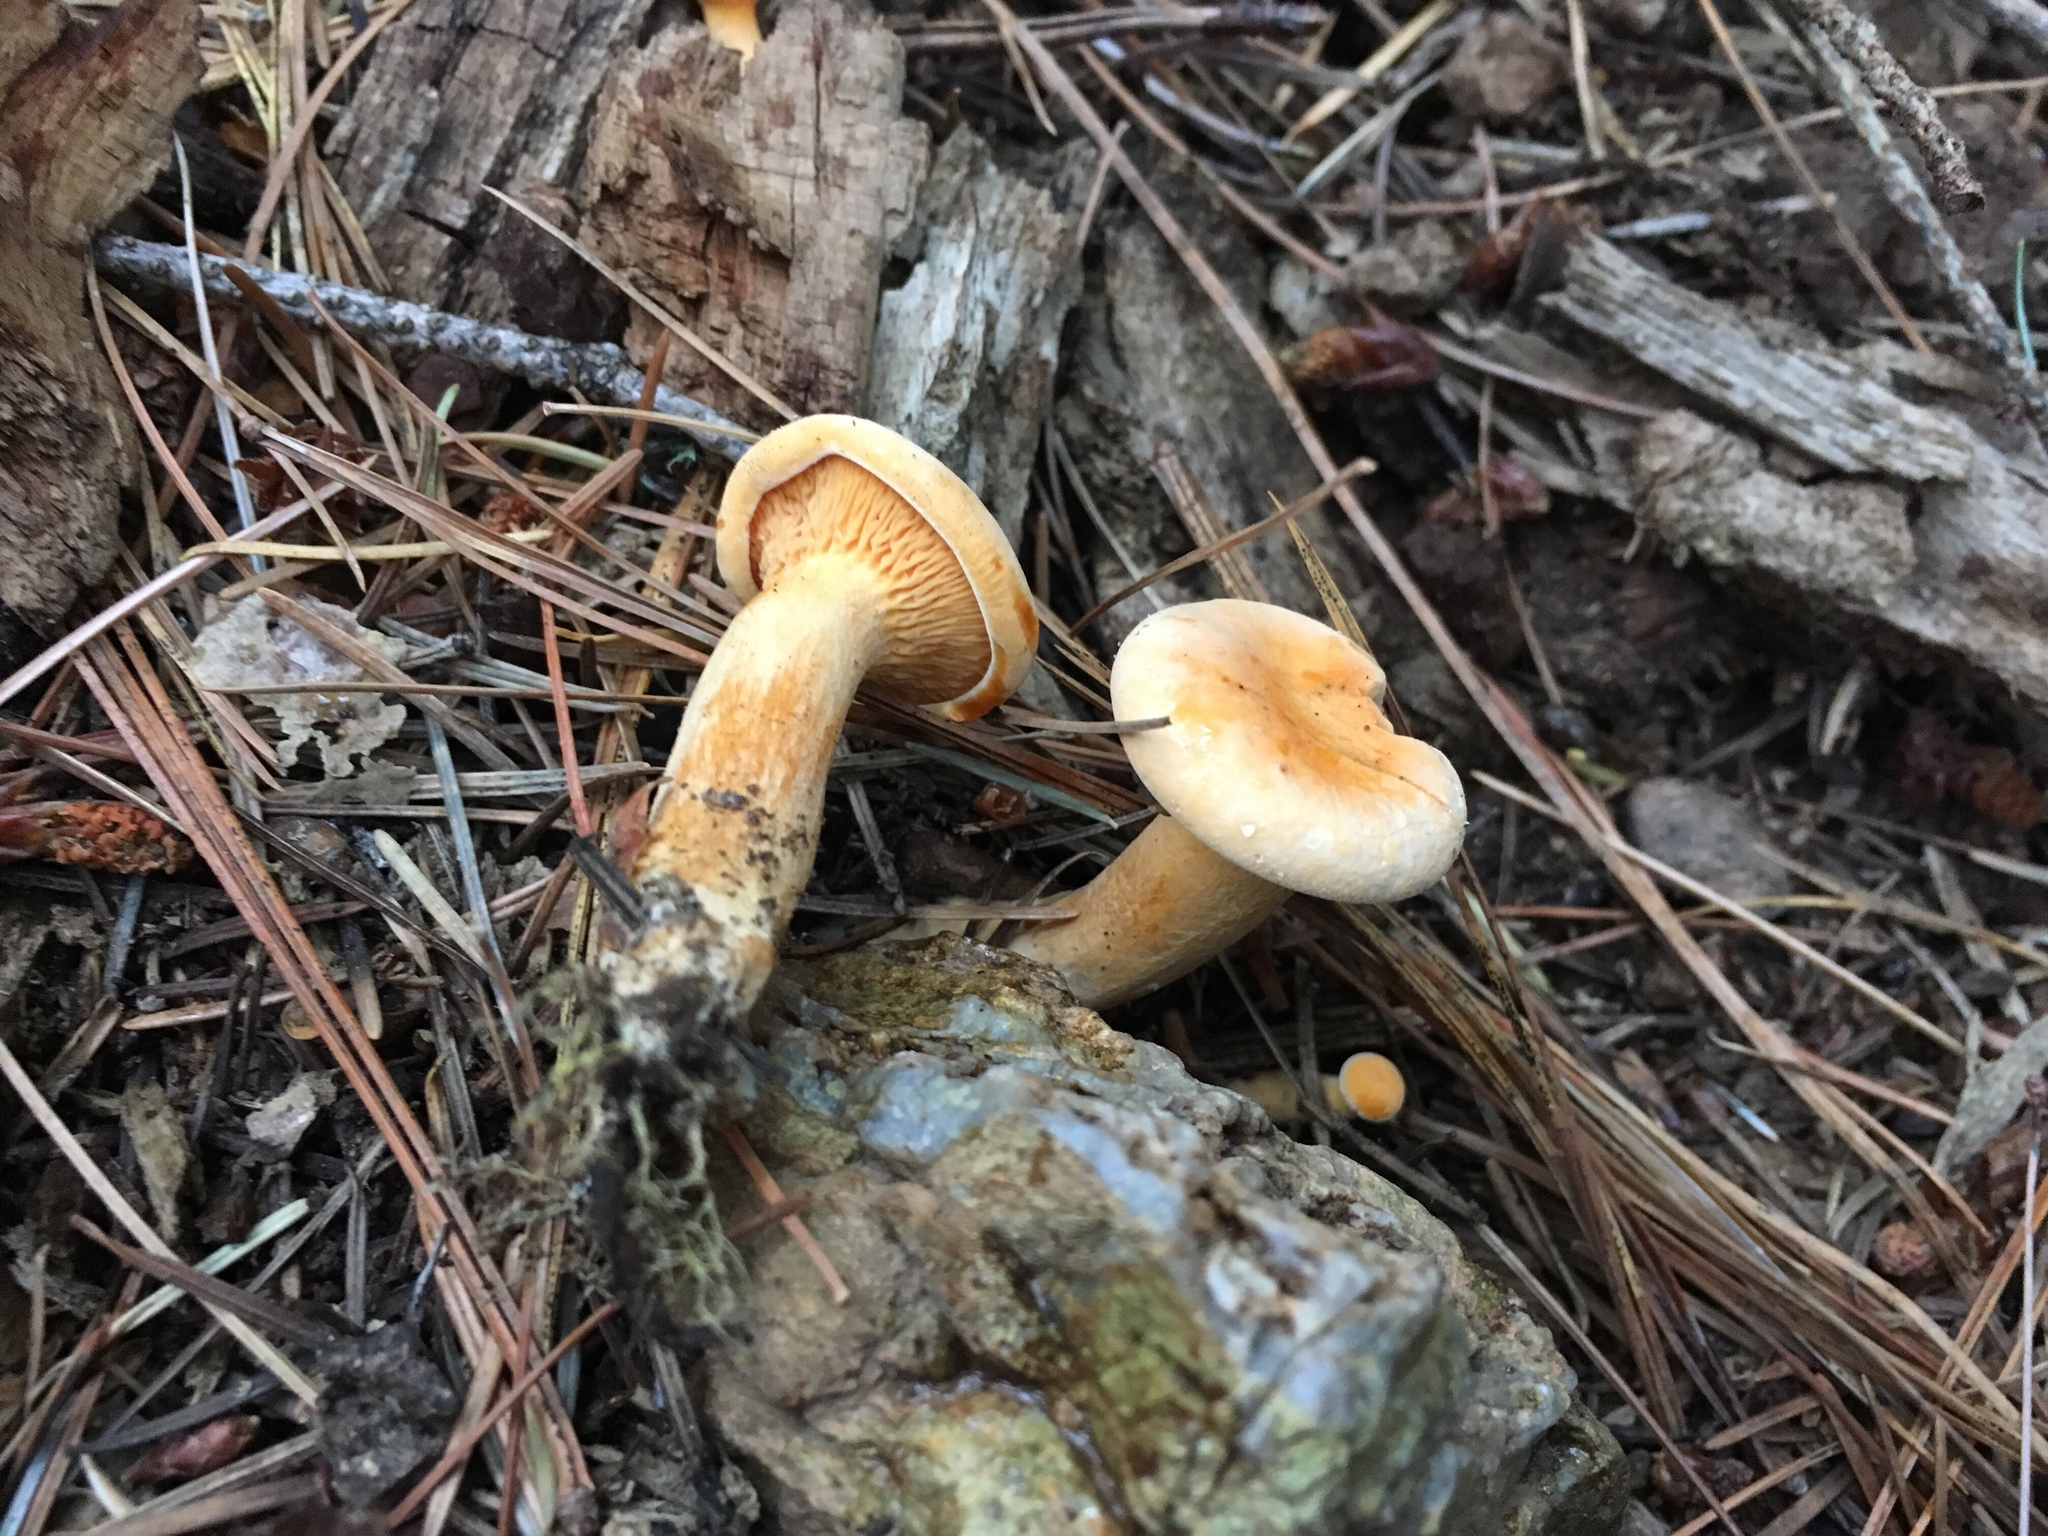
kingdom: Fungi
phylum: Basidiomycota
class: Agaricomycetes
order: Boletales
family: Hygrophoropsidaceae
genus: Hygrophoropsis
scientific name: Hygrophoropsis aurantiaca
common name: False chanterelle
